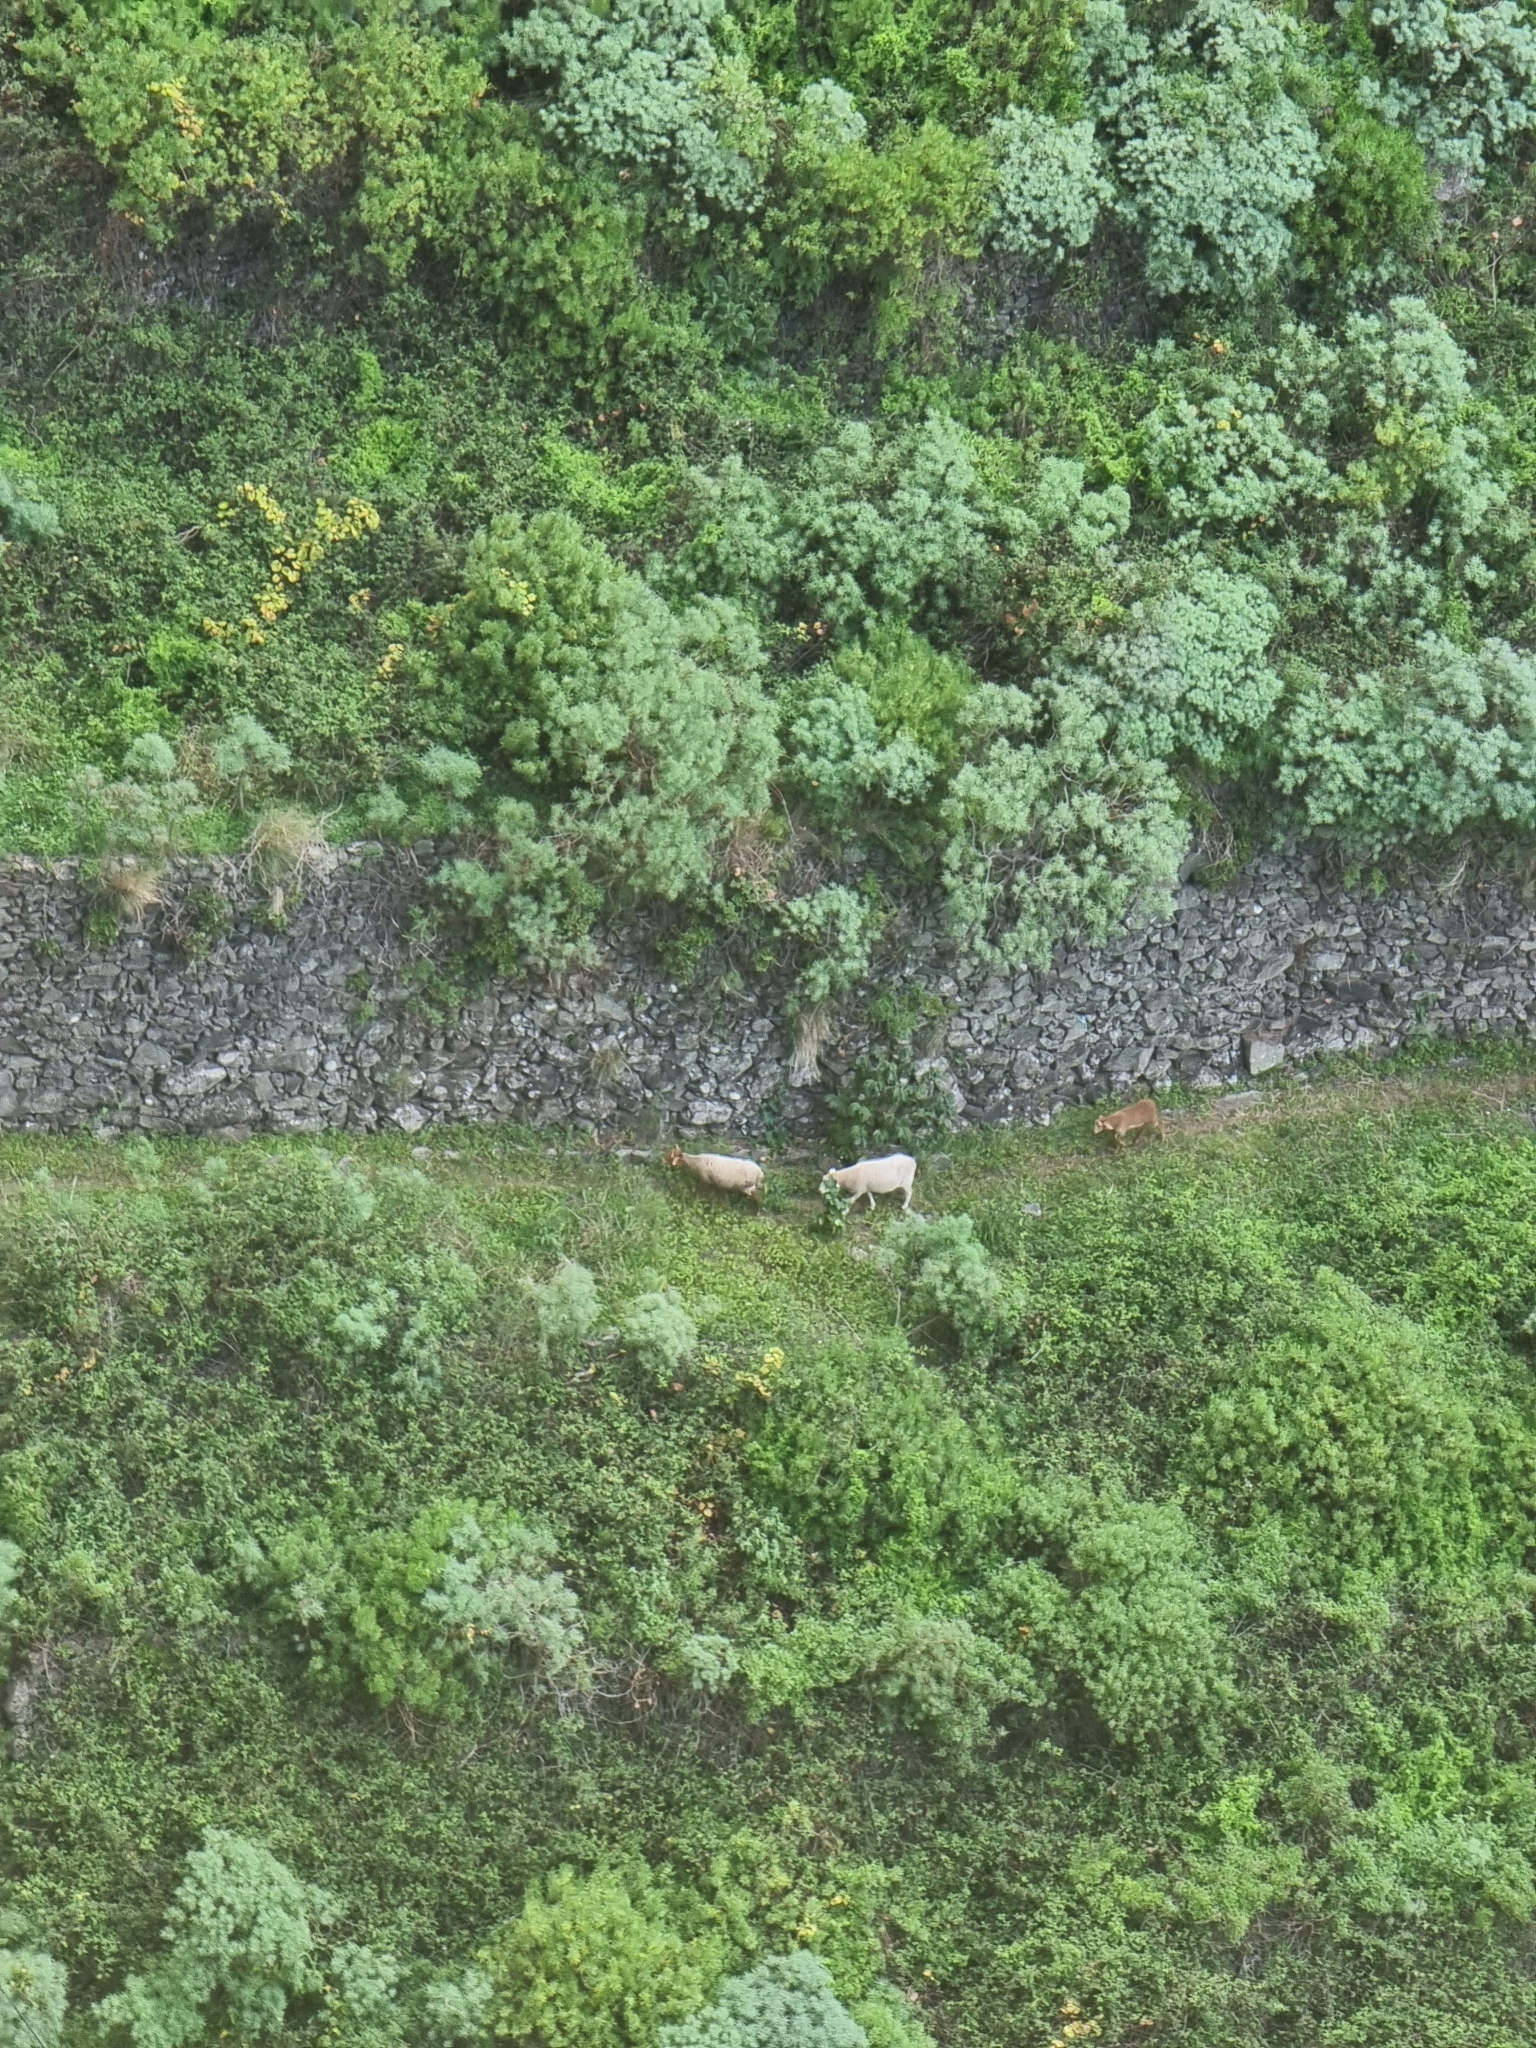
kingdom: Plantae
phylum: Tracheophyta
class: Magnoliopsida
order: Malpighiales
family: Euphorbiaceae
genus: Euphorbia
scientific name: Euphorbia piscatoria
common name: Fish-stunning spurge
